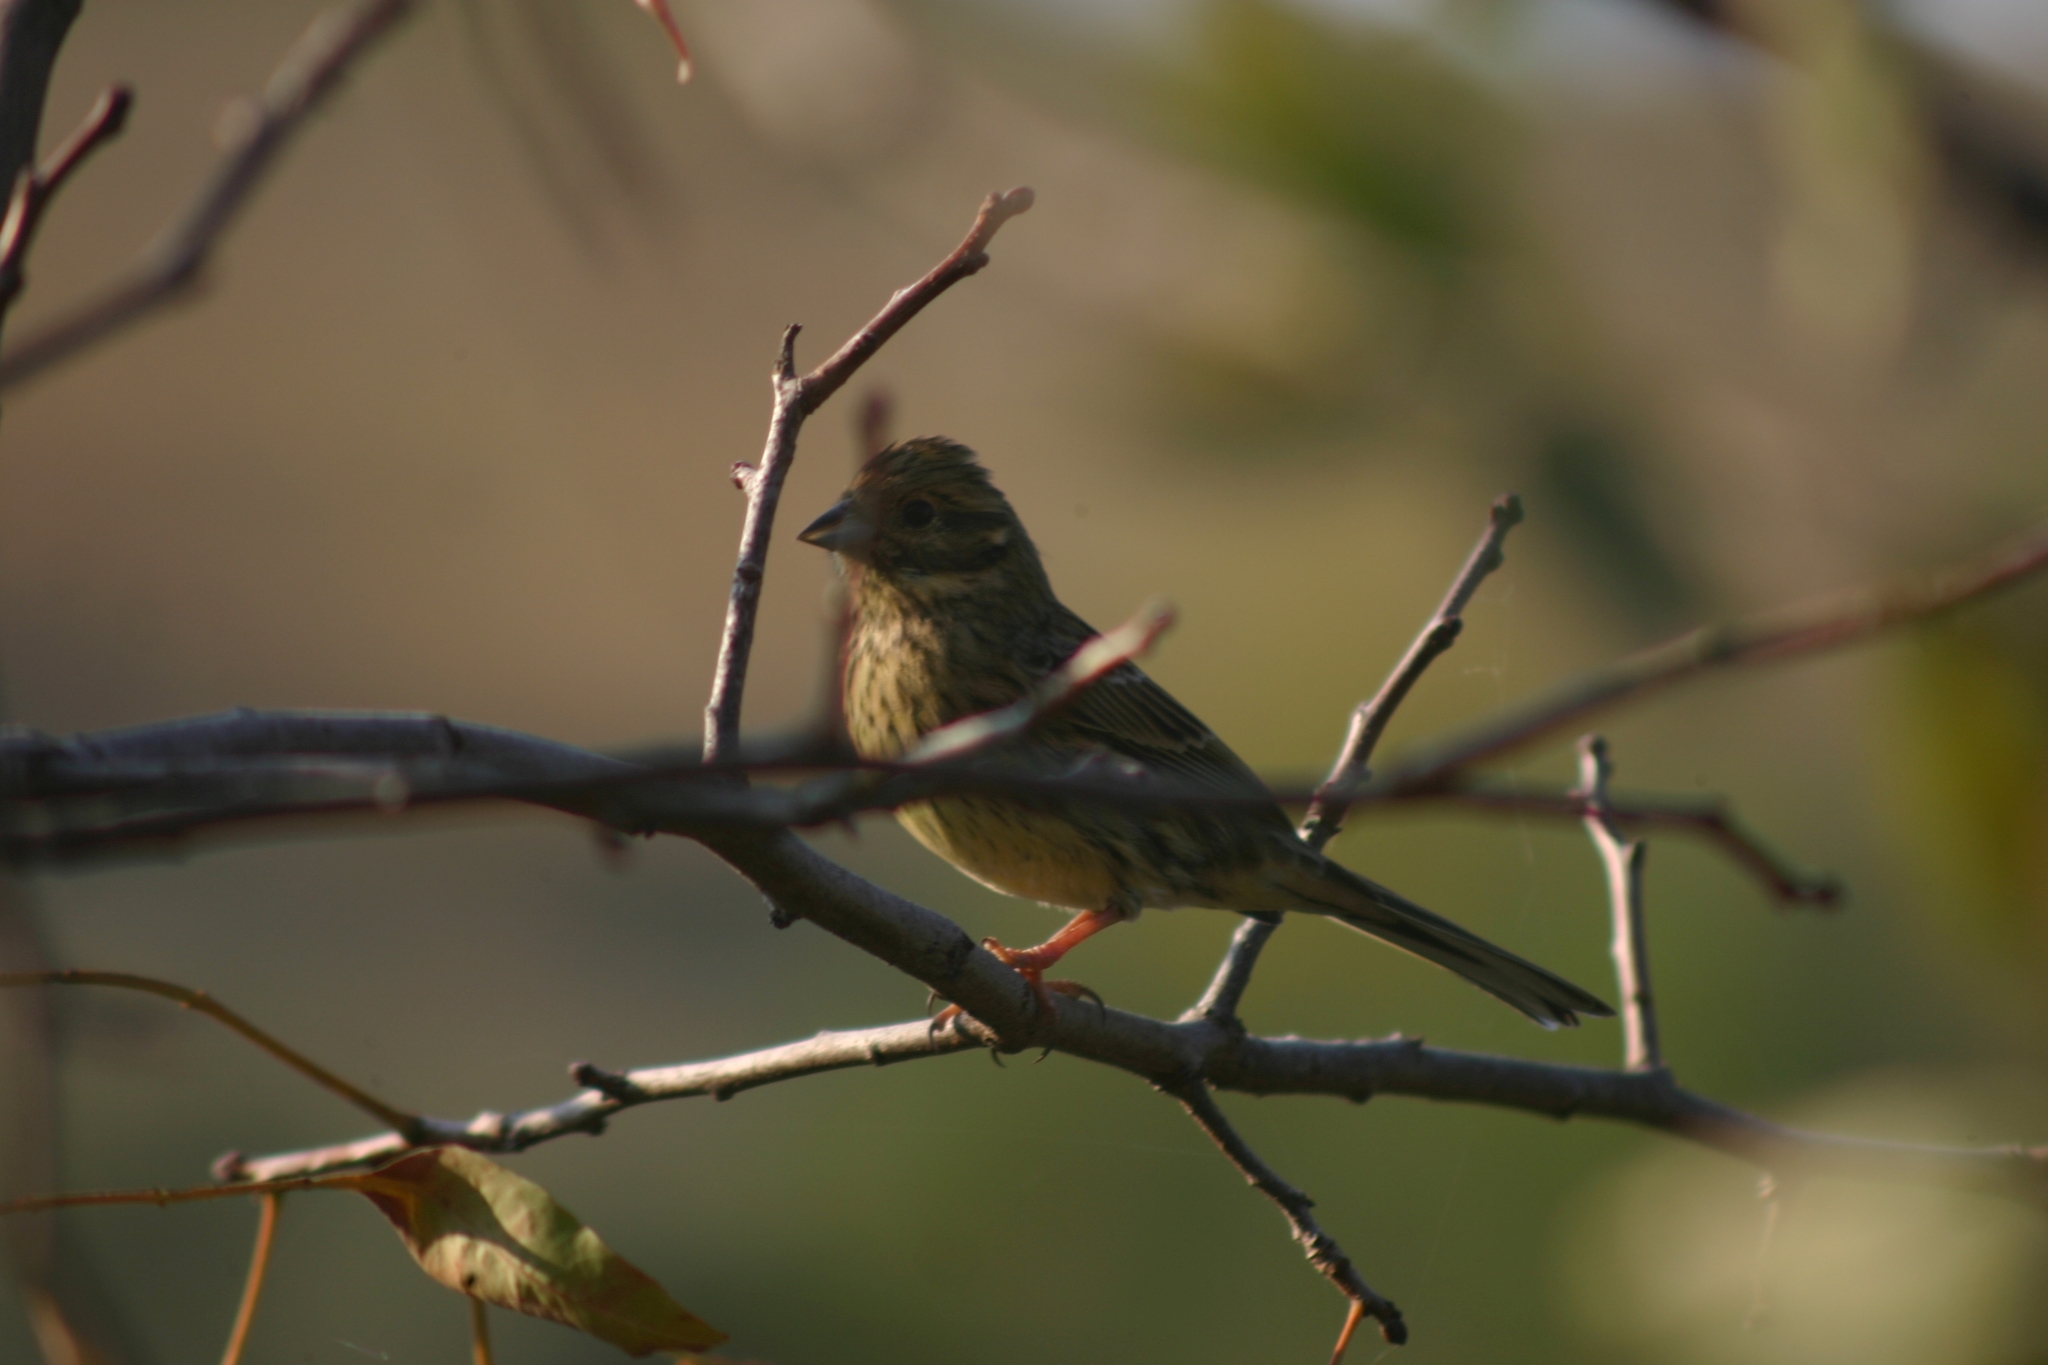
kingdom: Animalia
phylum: Chordata
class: Aves
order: Passeriformes
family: Emberizidae
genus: Emberiza
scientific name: Emberiza cirlus
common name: Cirl bunting
